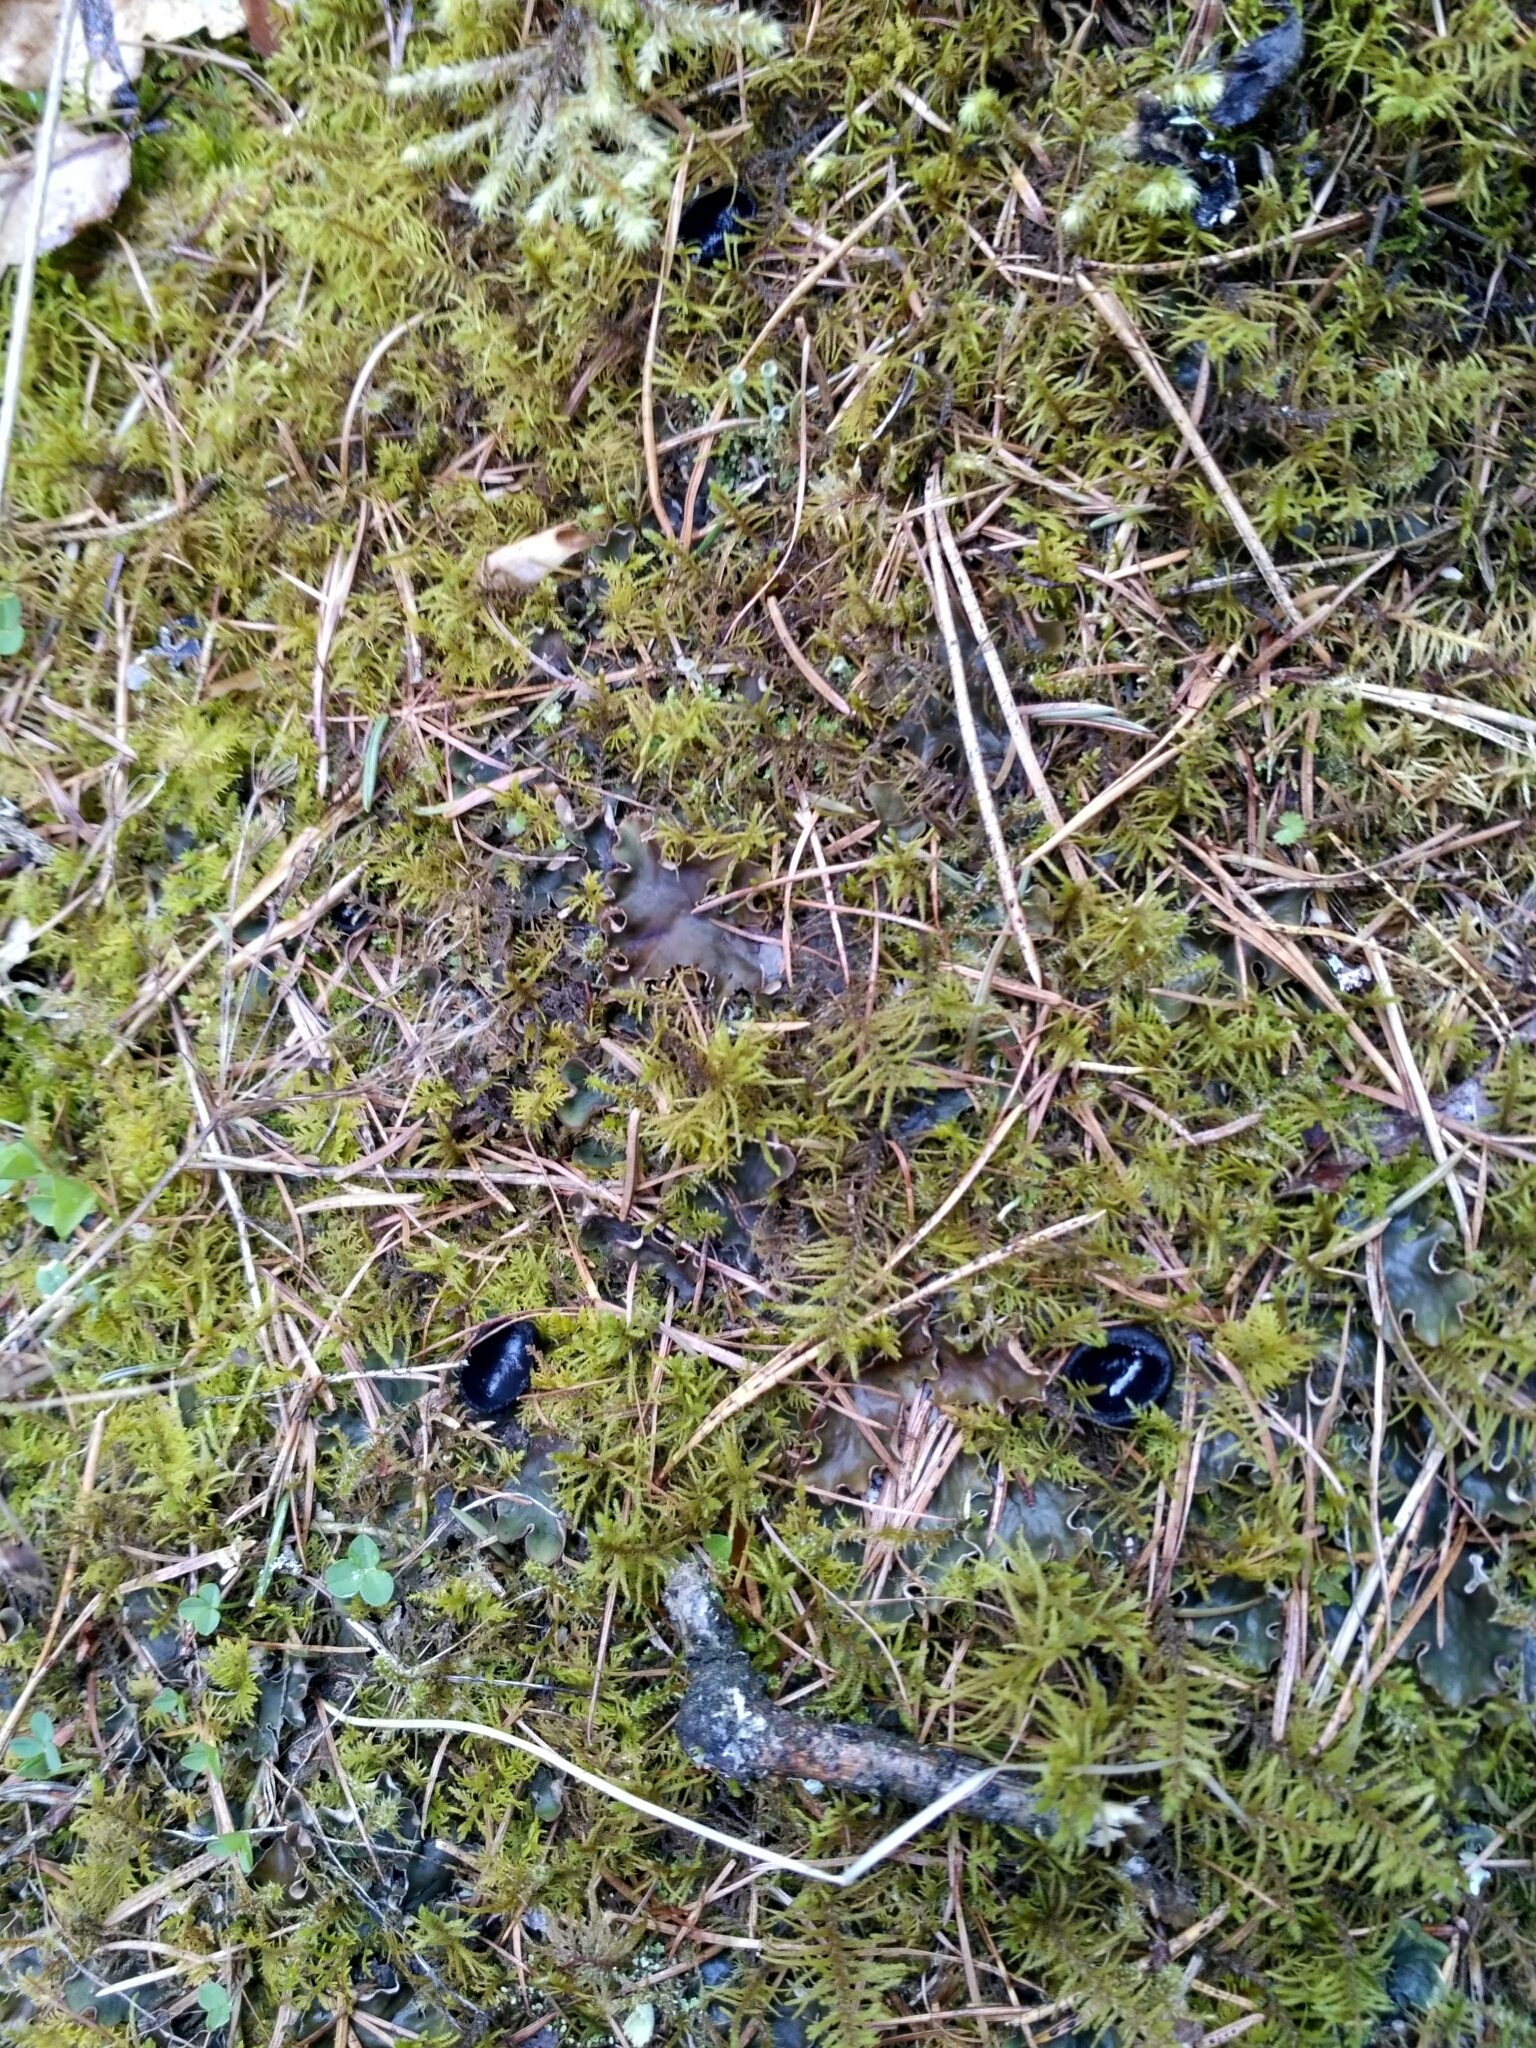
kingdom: Fungi
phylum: Ascomycota
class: Pezizomycetes
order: Pezizales
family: Sarcosomataceae
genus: Pseudoplectania
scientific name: Pseudoplectania nigrella
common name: Ebony cup
